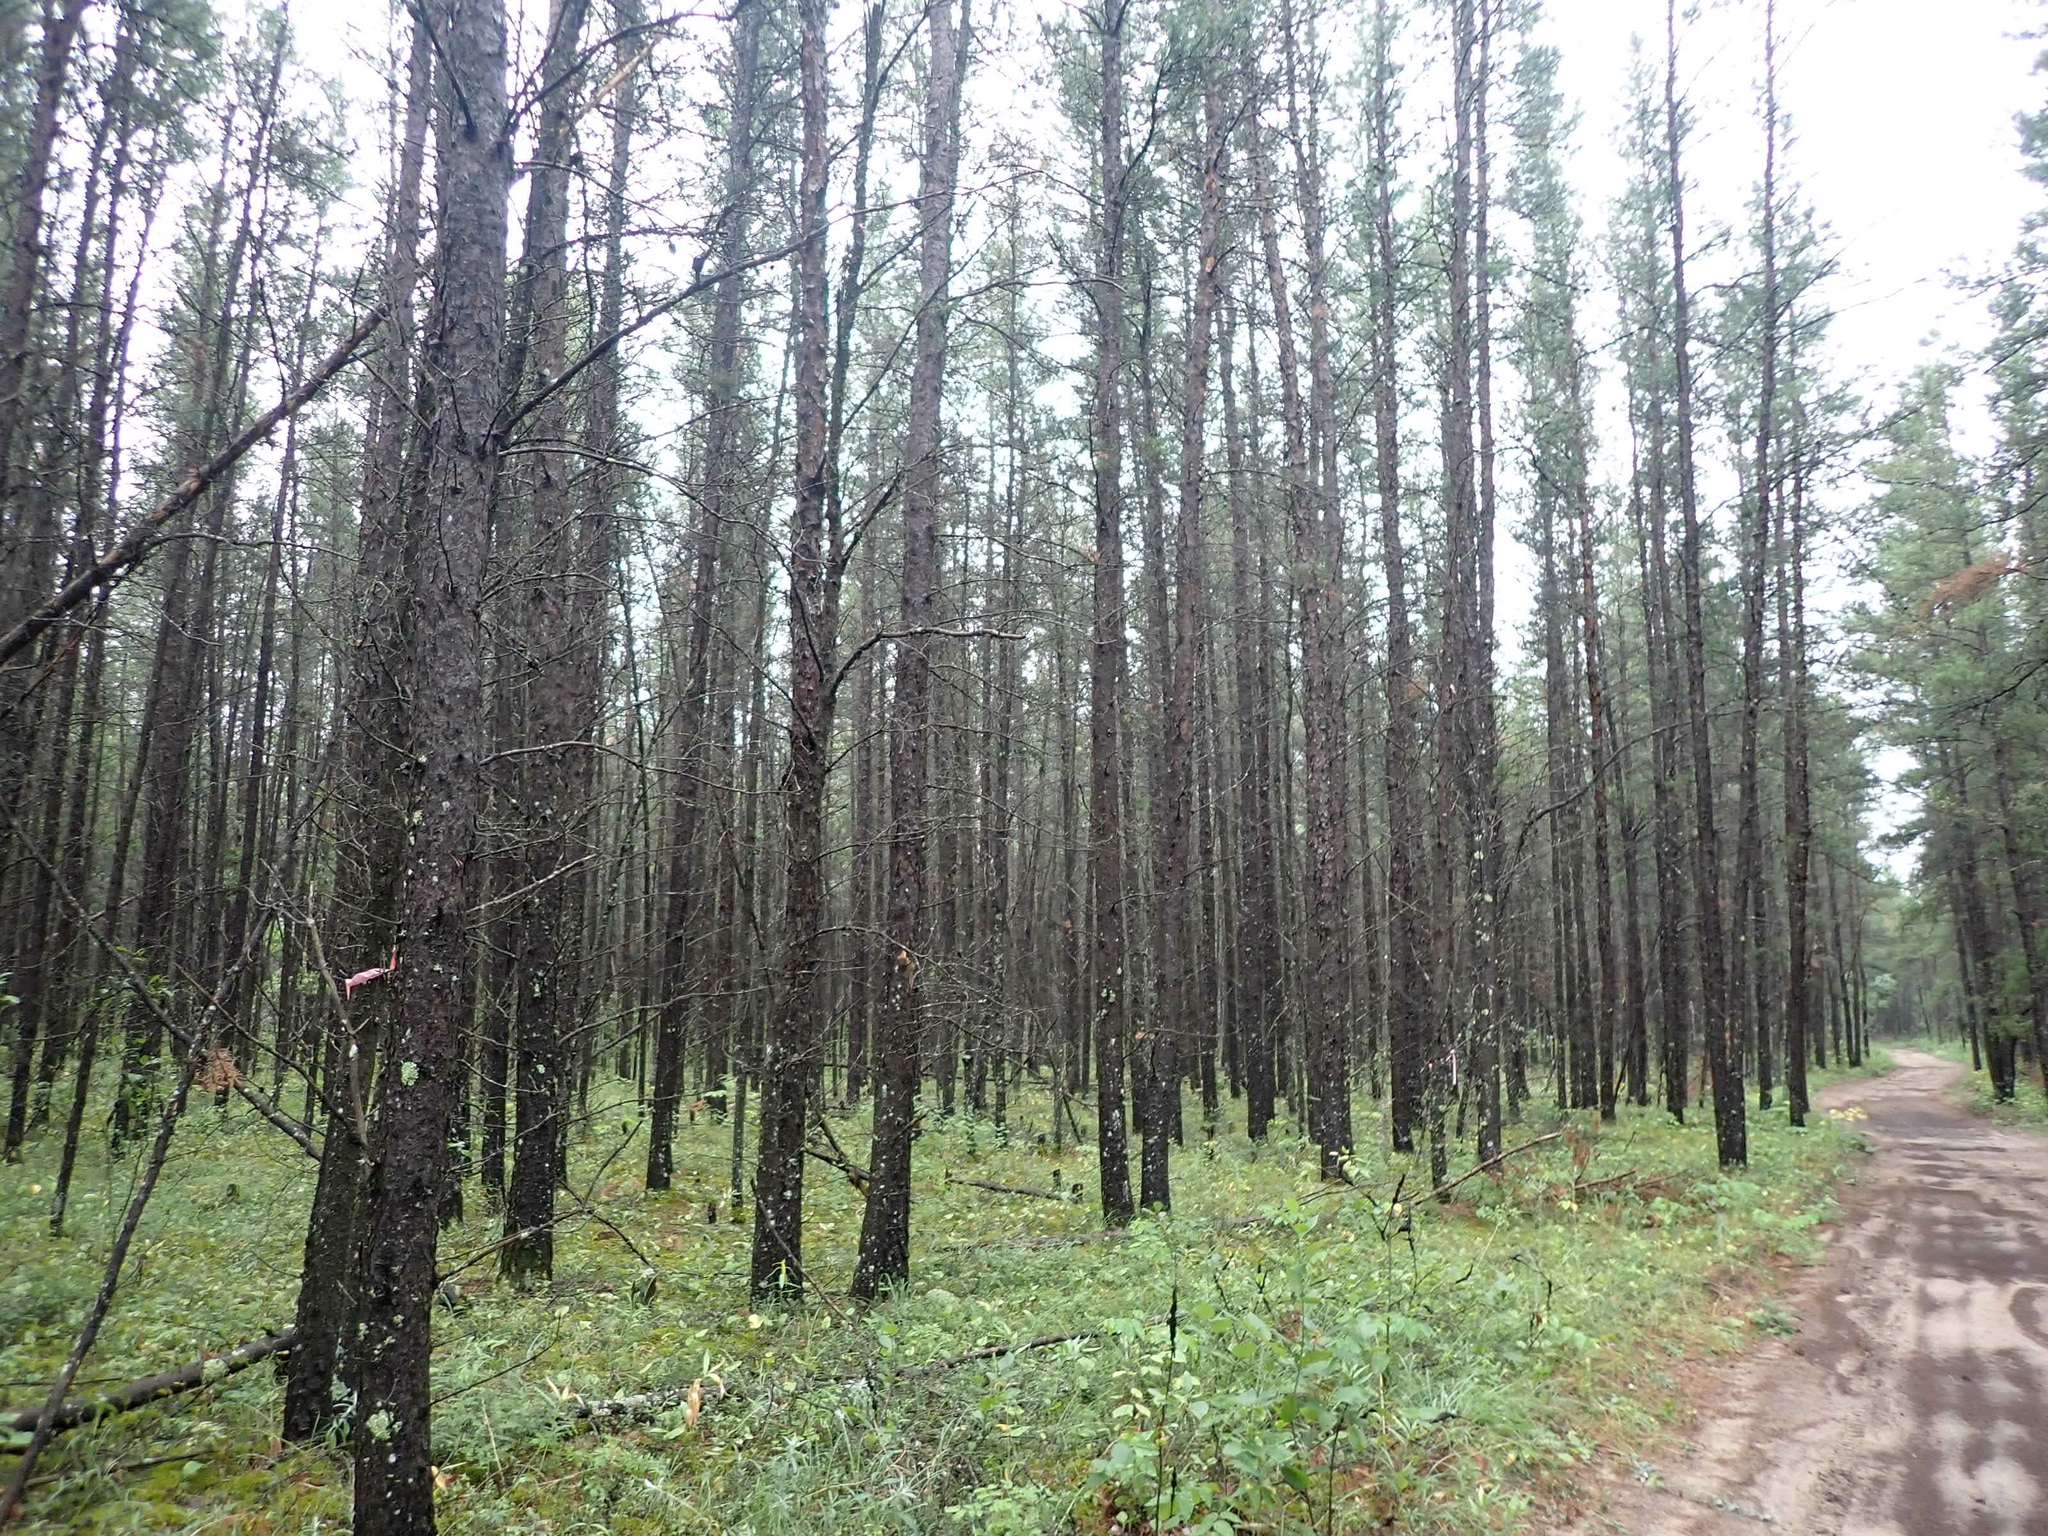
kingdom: Plantae
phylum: Tracheophyta
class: Pinopsida
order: Pinales
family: Pinaceae
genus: Pinus
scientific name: Pinus banksiana
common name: Jack pine
